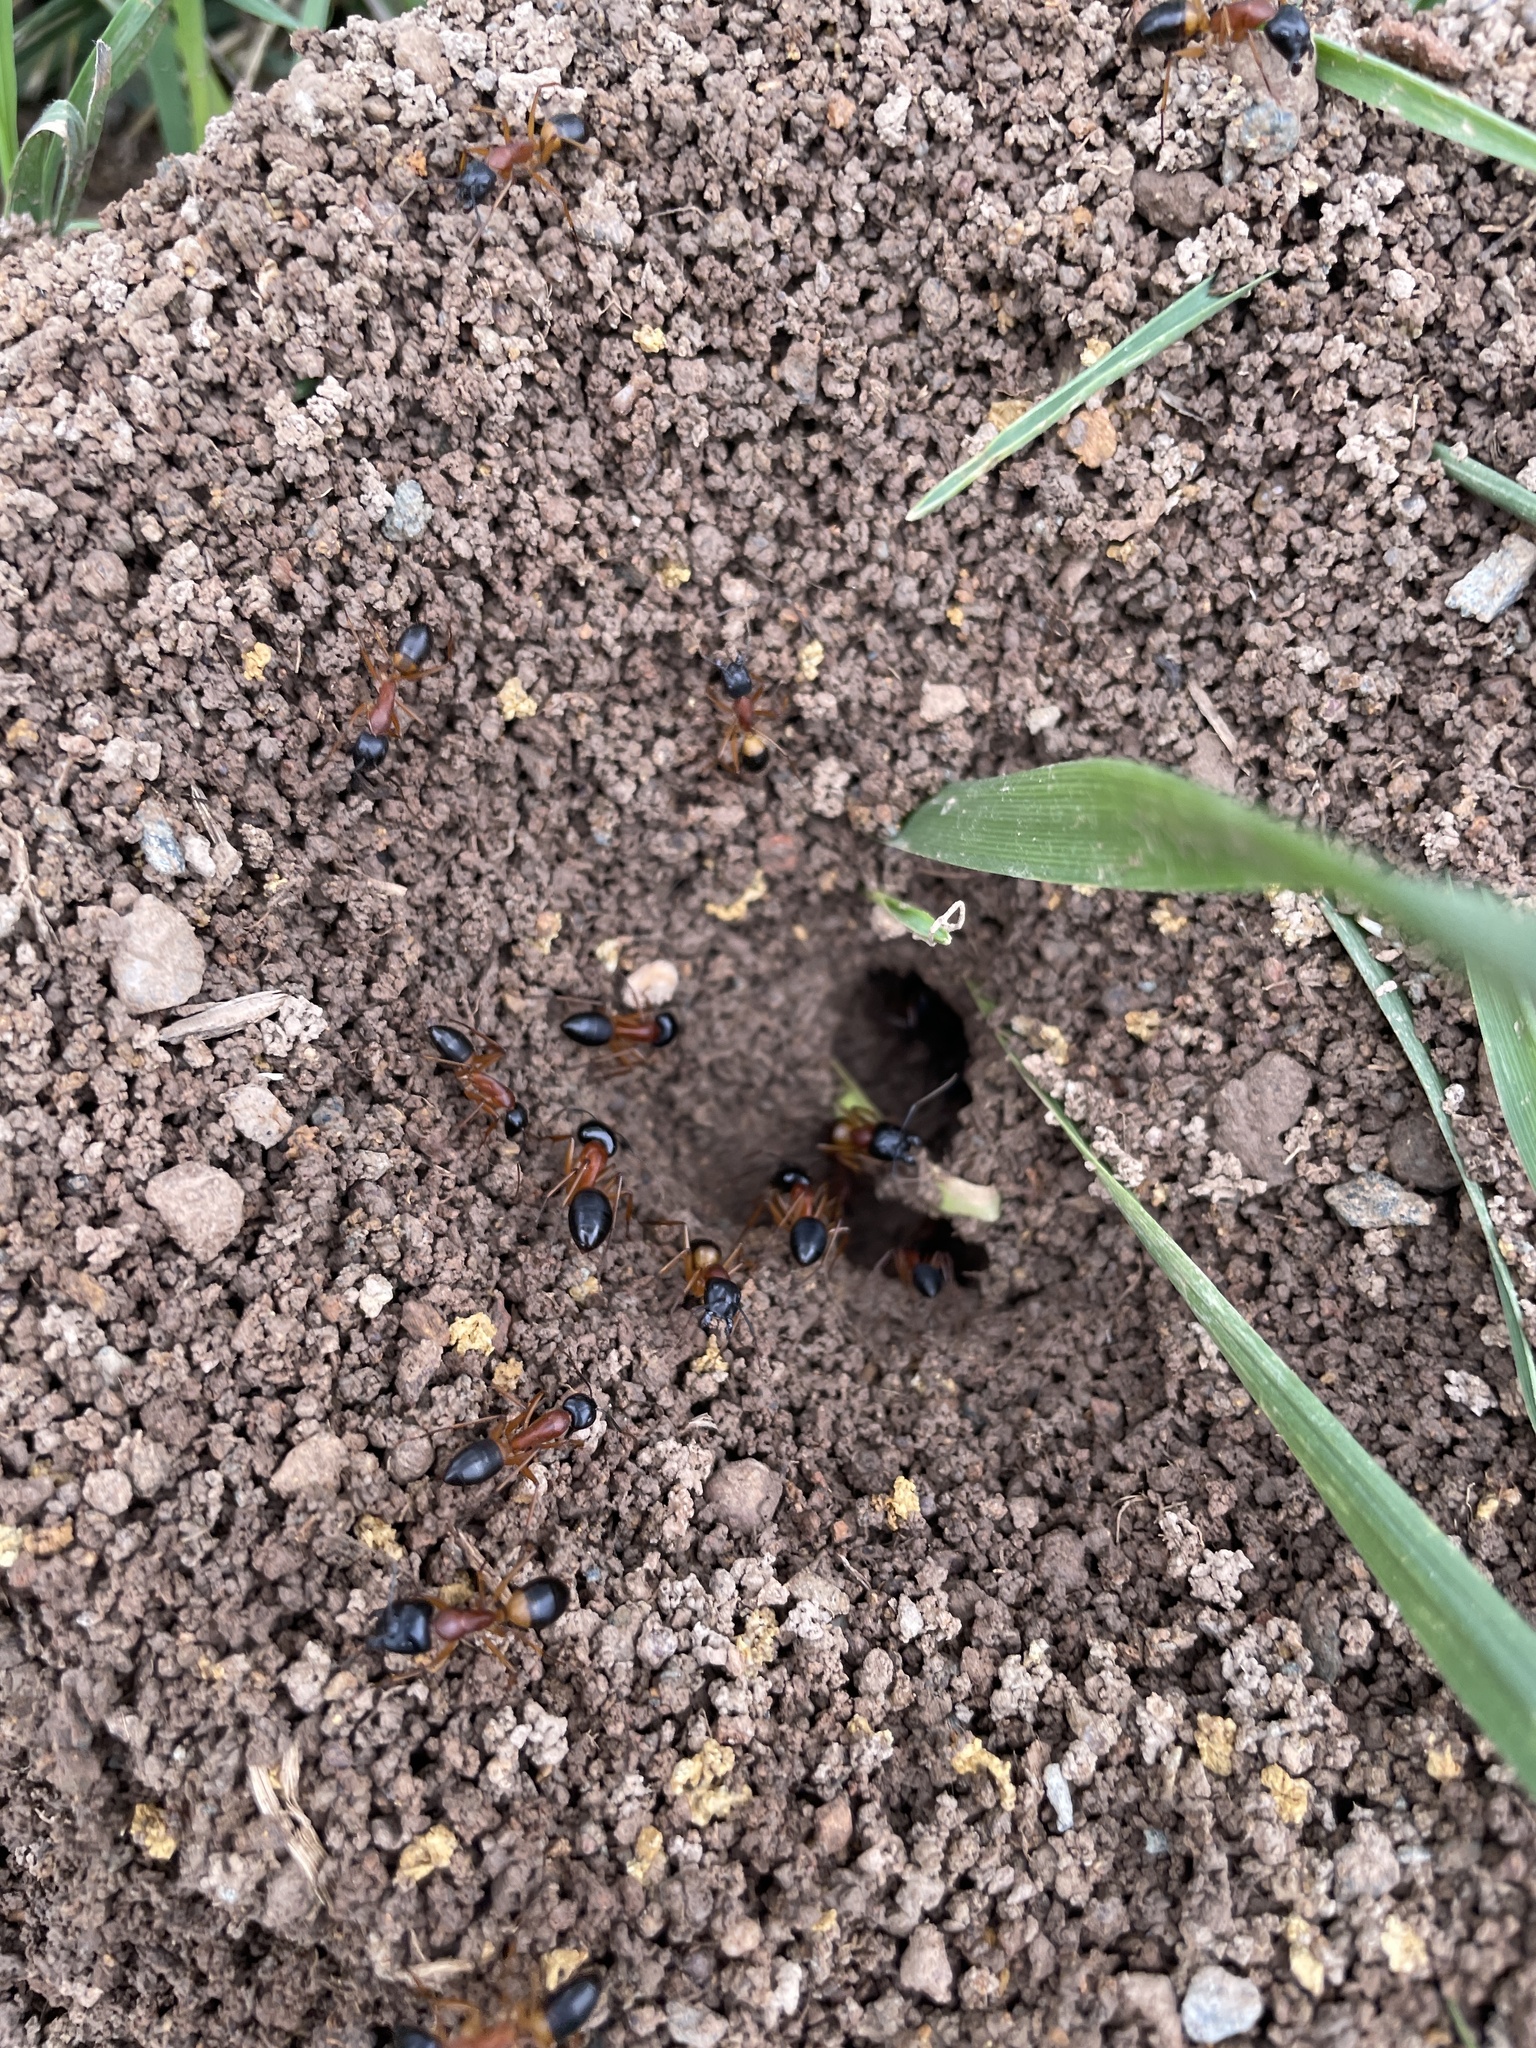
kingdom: Animalia
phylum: Arthropoda
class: Insecta
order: Hymenoptera
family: Formicidae
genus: Camponotus
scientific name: Camponotus consobrinus
